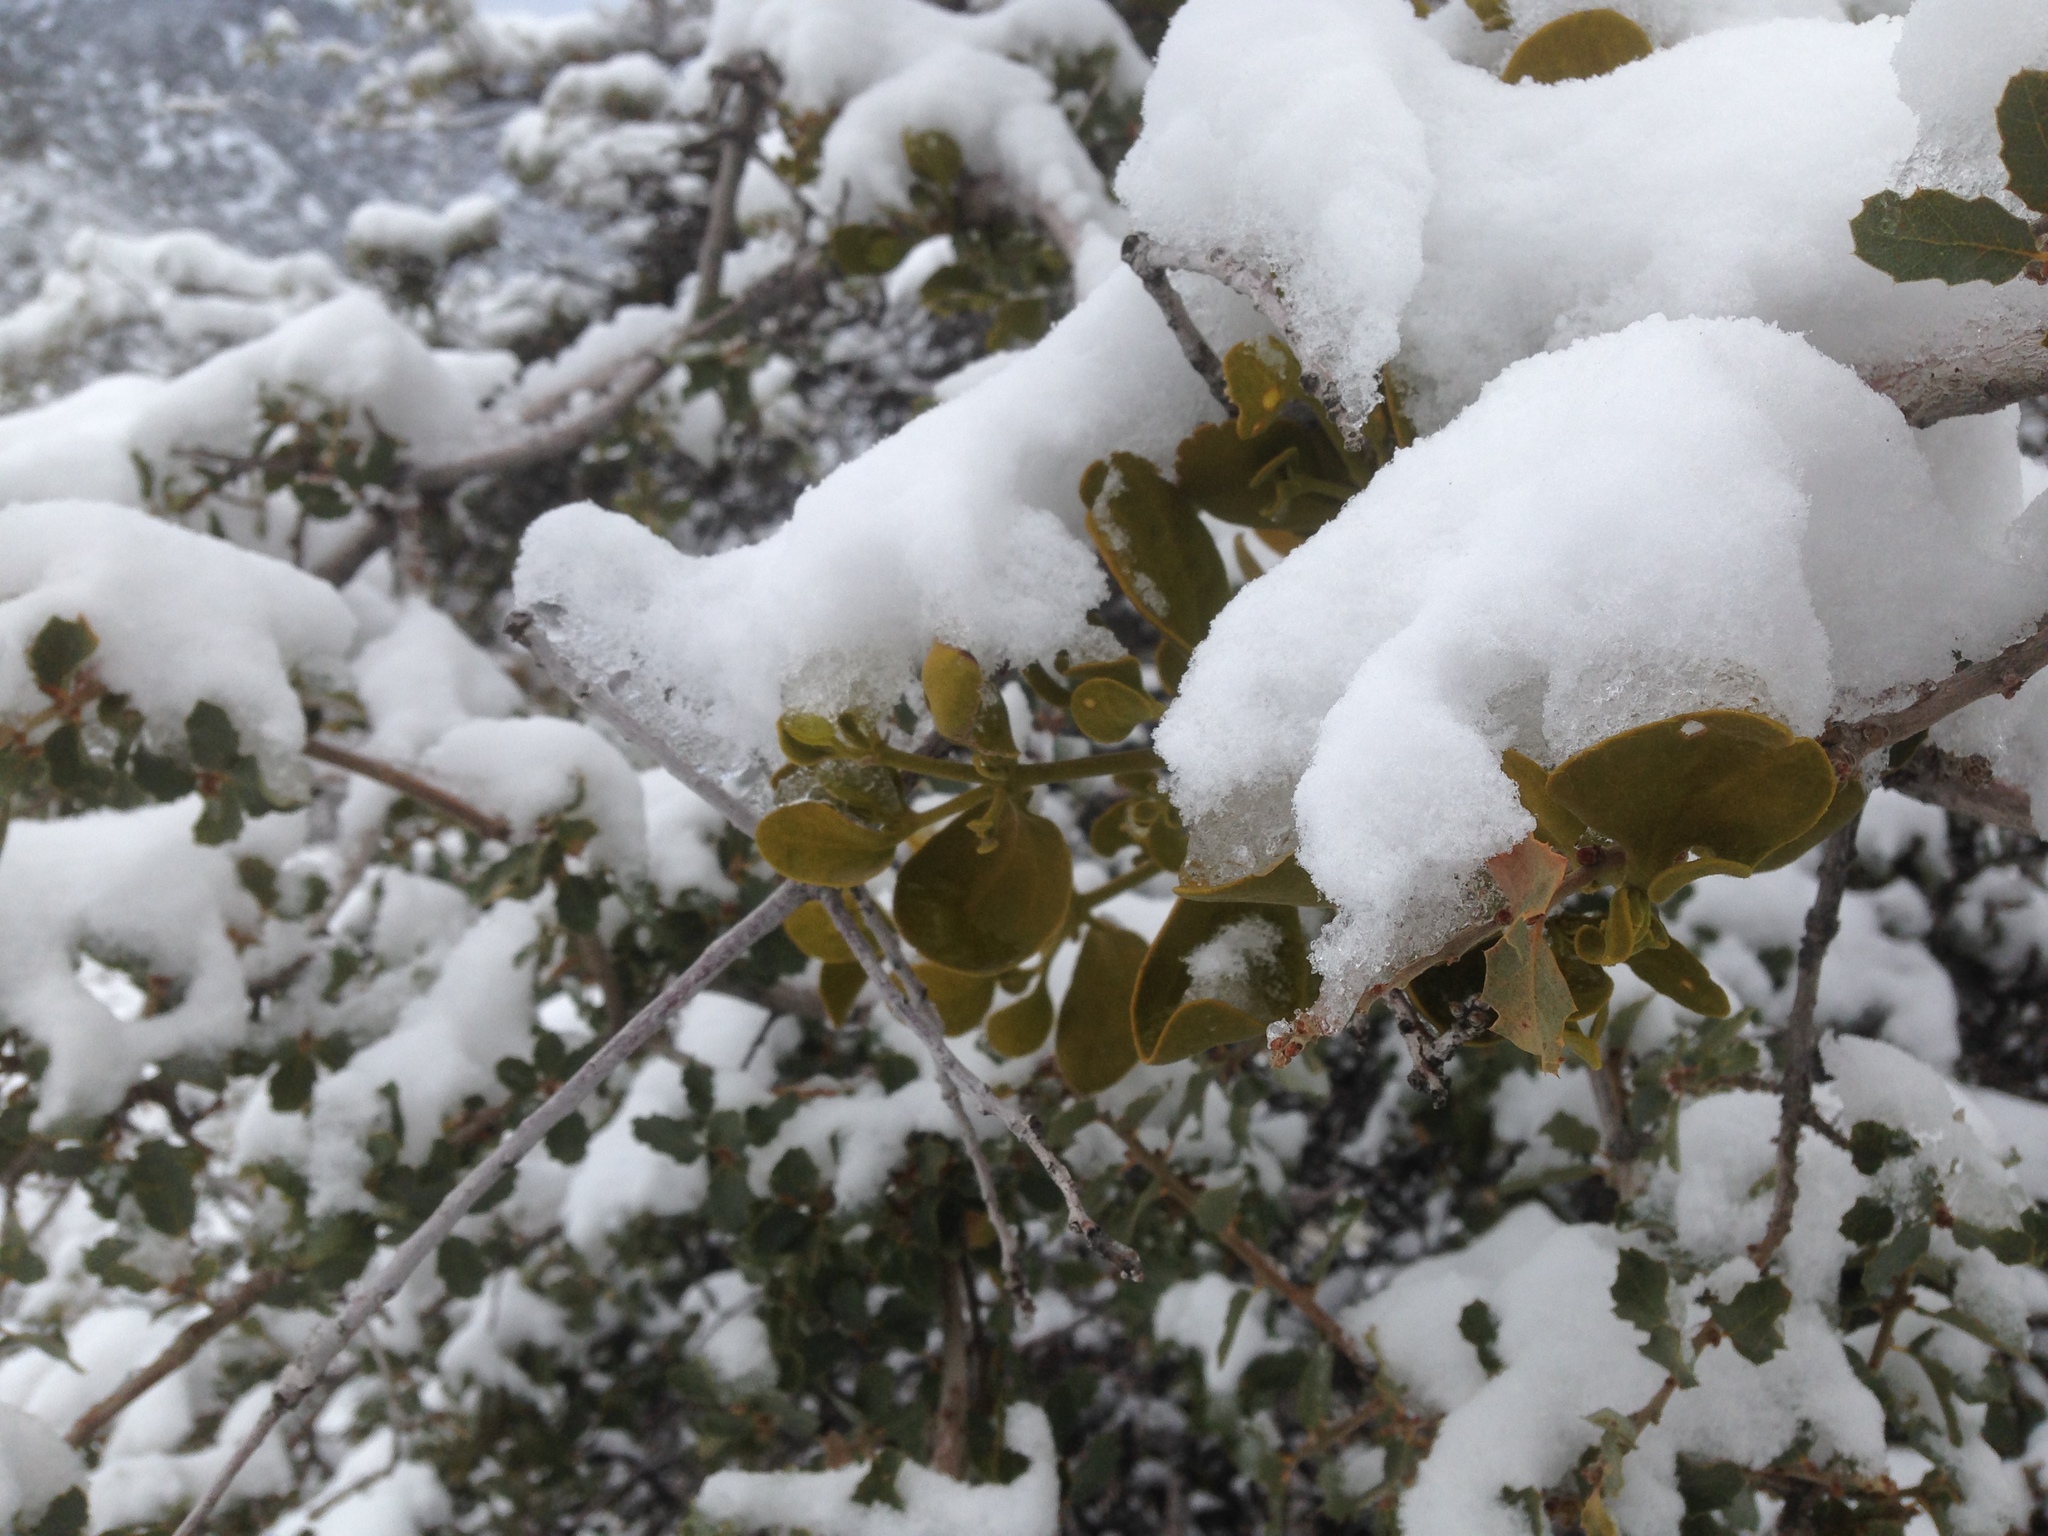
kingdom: Plantae
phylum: Tracheophyta
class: Magnoliopsida
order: Santalales
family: Viscaceae
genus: Phoradendron
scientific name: Phoradendron leucarpum
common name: Pacific mistletoe
